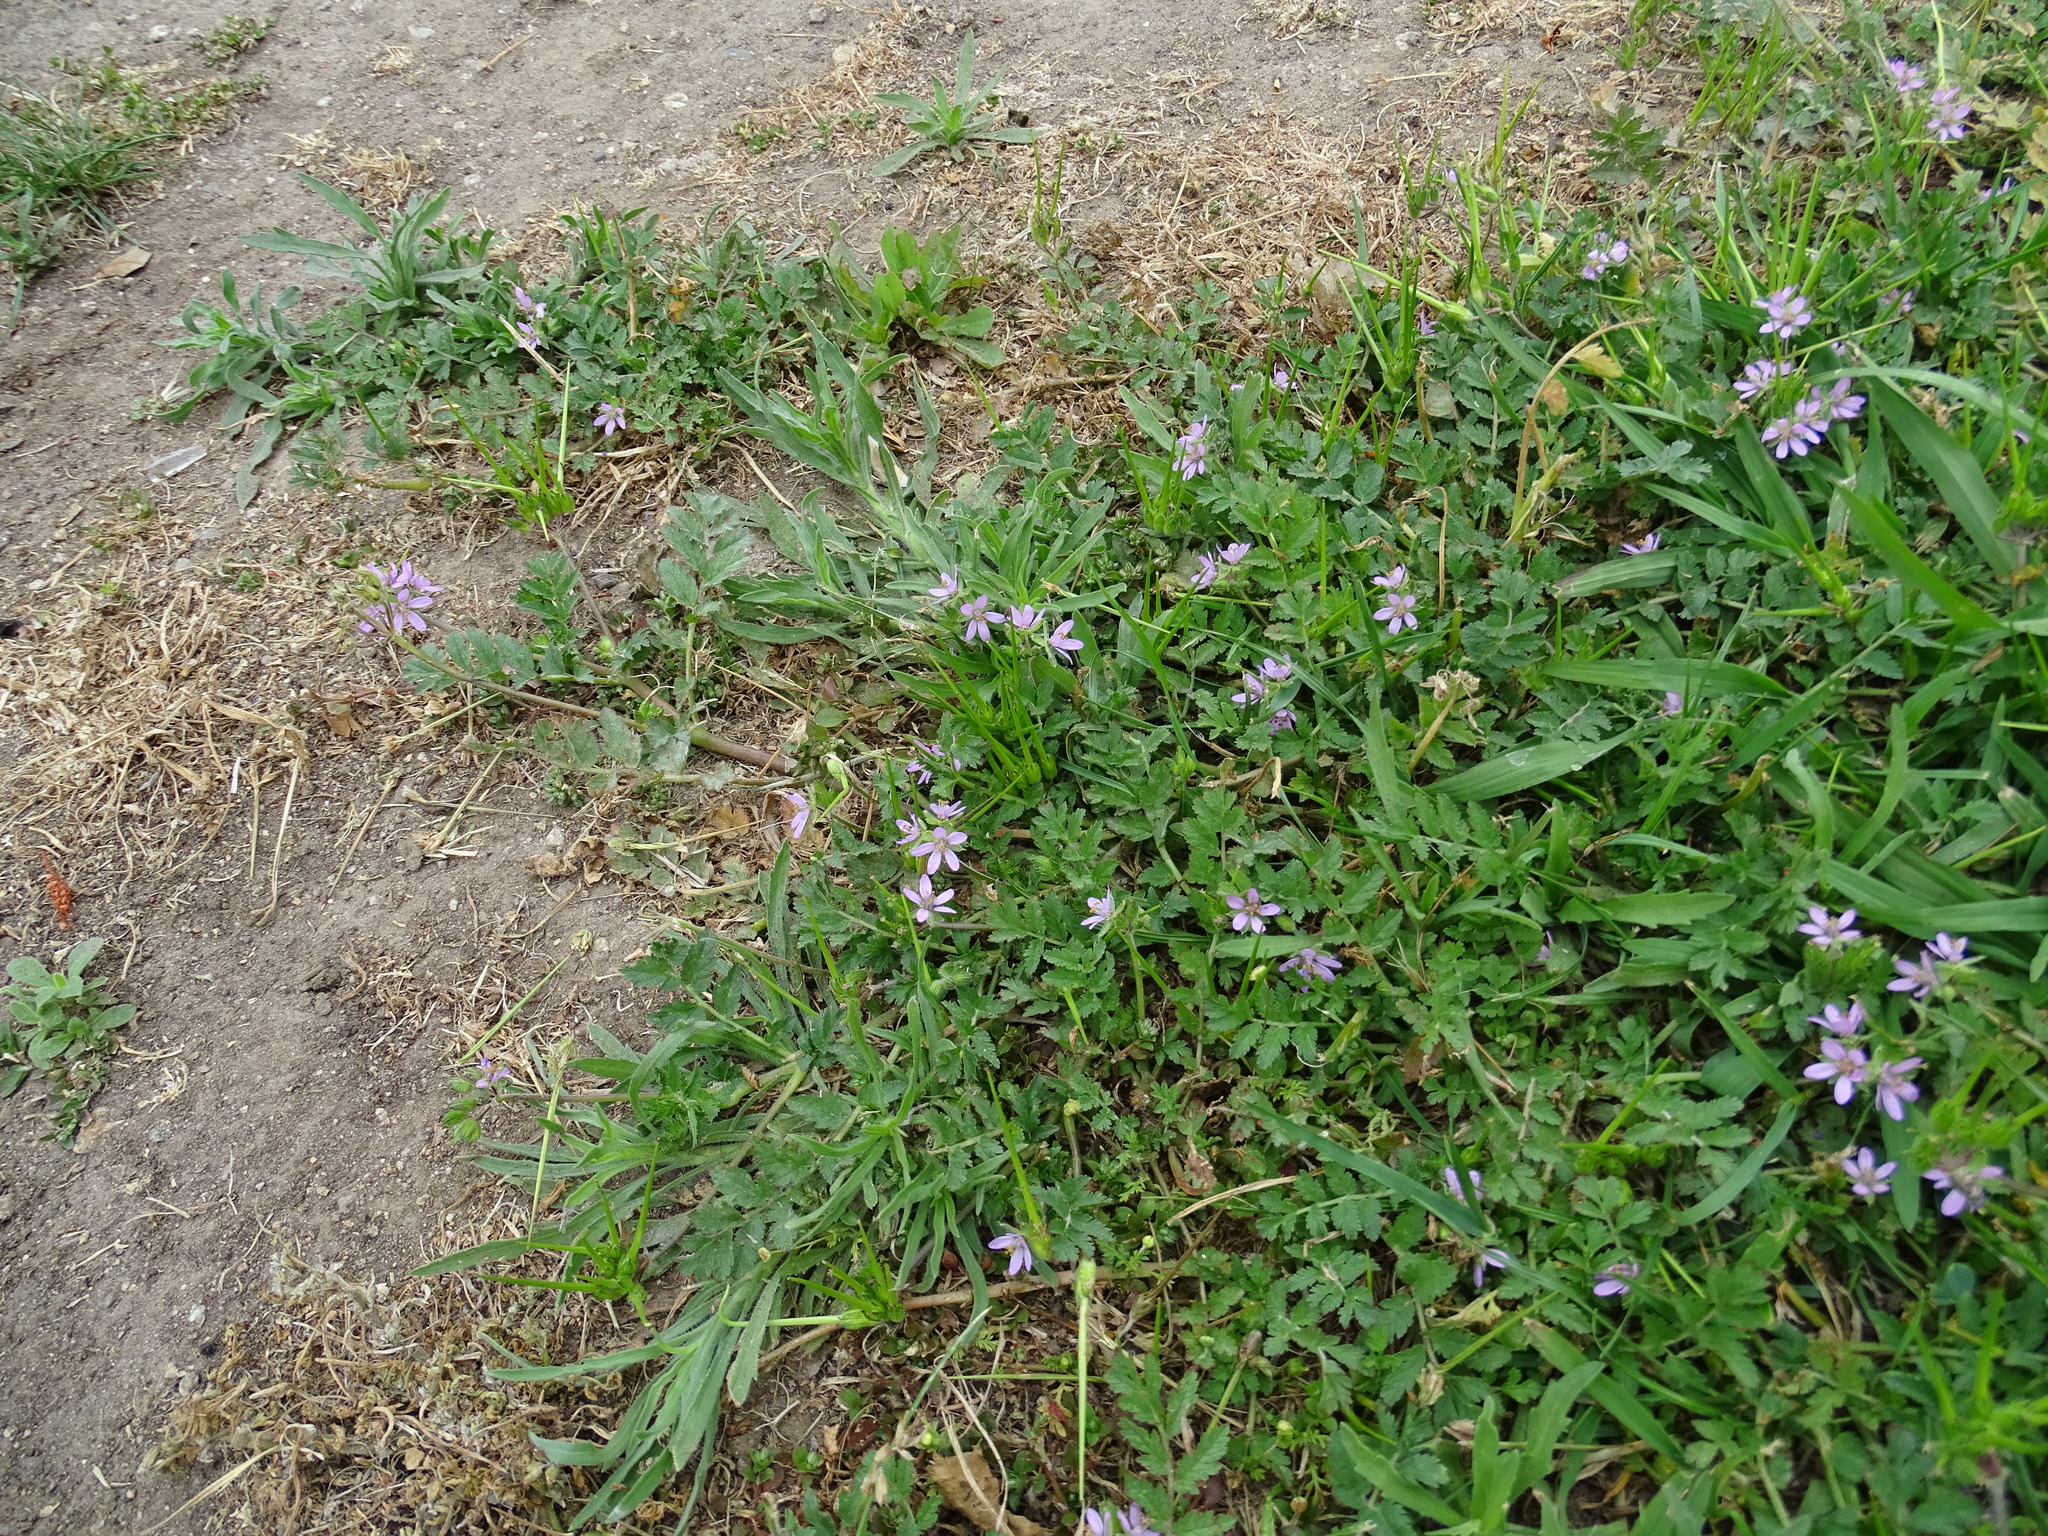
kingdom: Plantae
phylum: Tracheophyta
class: Magnoliopsida
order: Geraniales
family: Geraniaceae
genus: Erodium
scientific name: Erodium moschatum
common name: Musk stork's-bill
